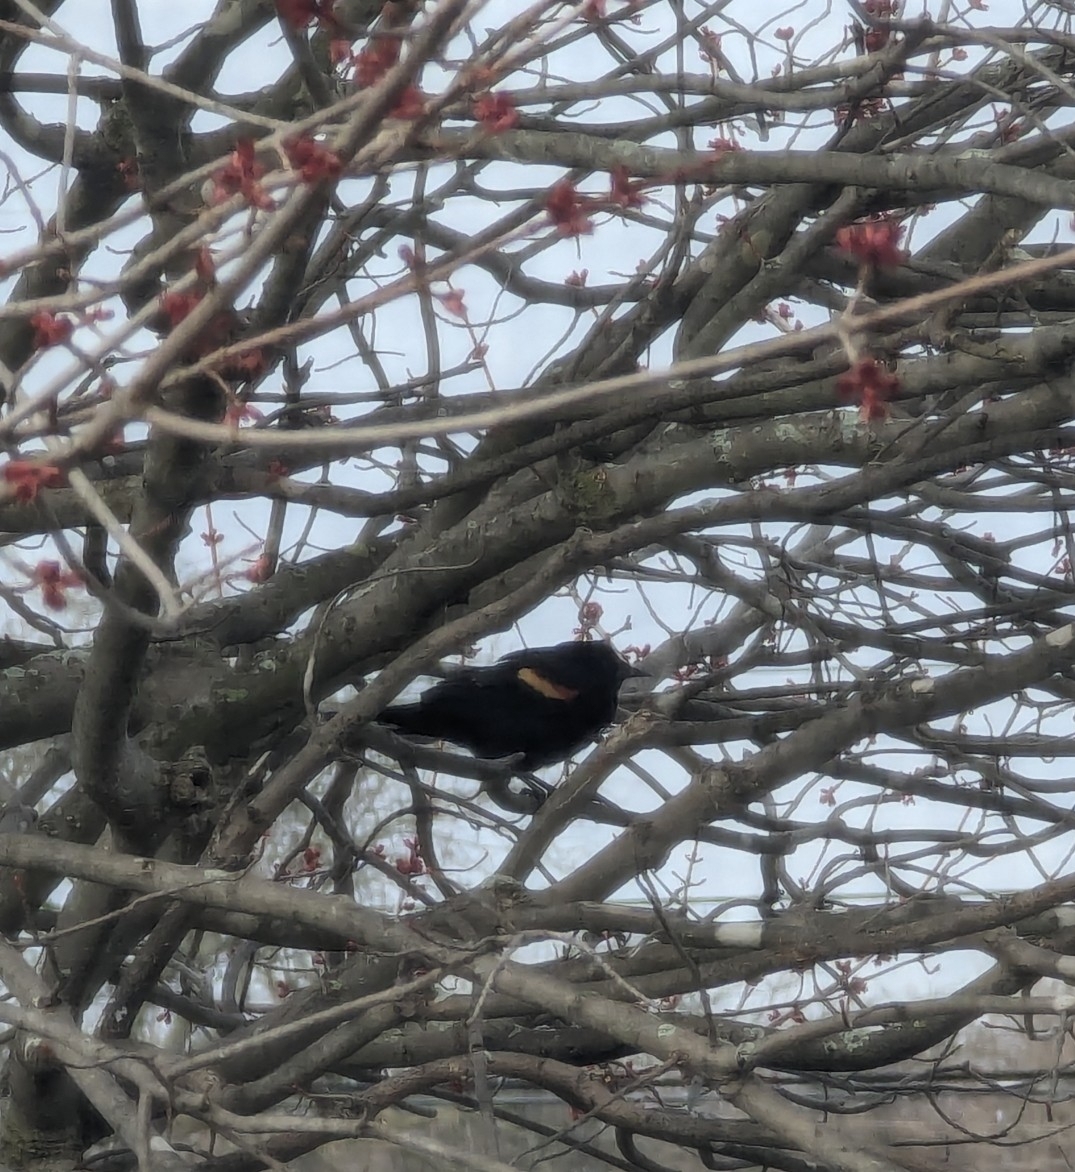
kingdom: Animalia
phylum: Chordata
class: Aves
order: Passeriformes
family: Icteridae
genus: Agelaius
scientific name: Agelaius phoeniceus
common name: Red-winged blackbird
